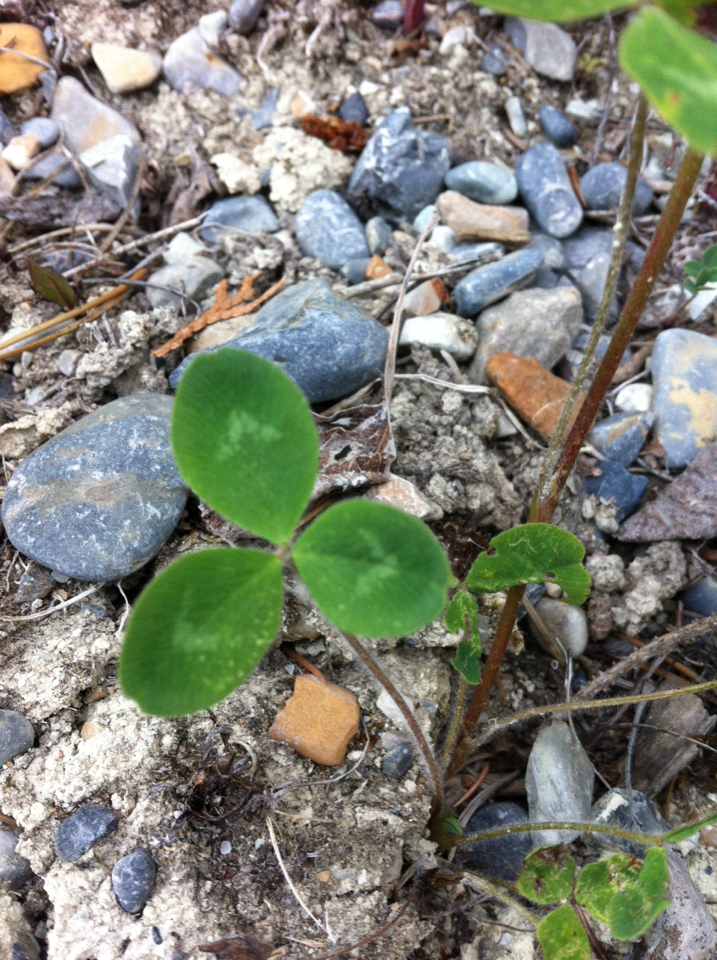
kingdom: Plantae
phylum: Tracheophyta
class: Magnoliopsida
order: Fabales
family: Fabaceae
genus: Trifolium
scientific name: Trifolium pratense
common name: Red clover
